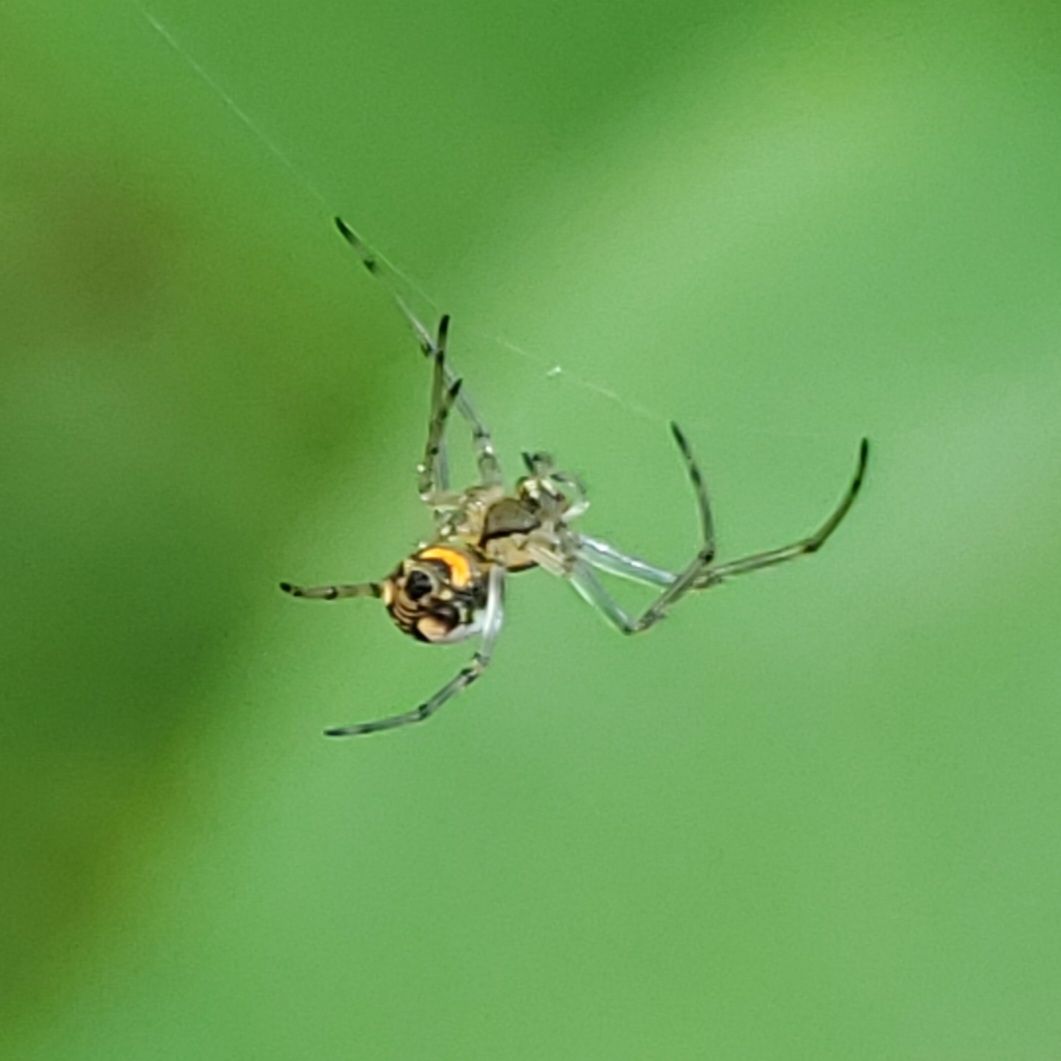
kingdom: Animalia
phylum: Arthropoda
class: Arachnida
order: Araneae
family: Tetragnathidae
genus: Leucauge
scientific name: Leucauge venusta
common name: Longjawed orb weavers
